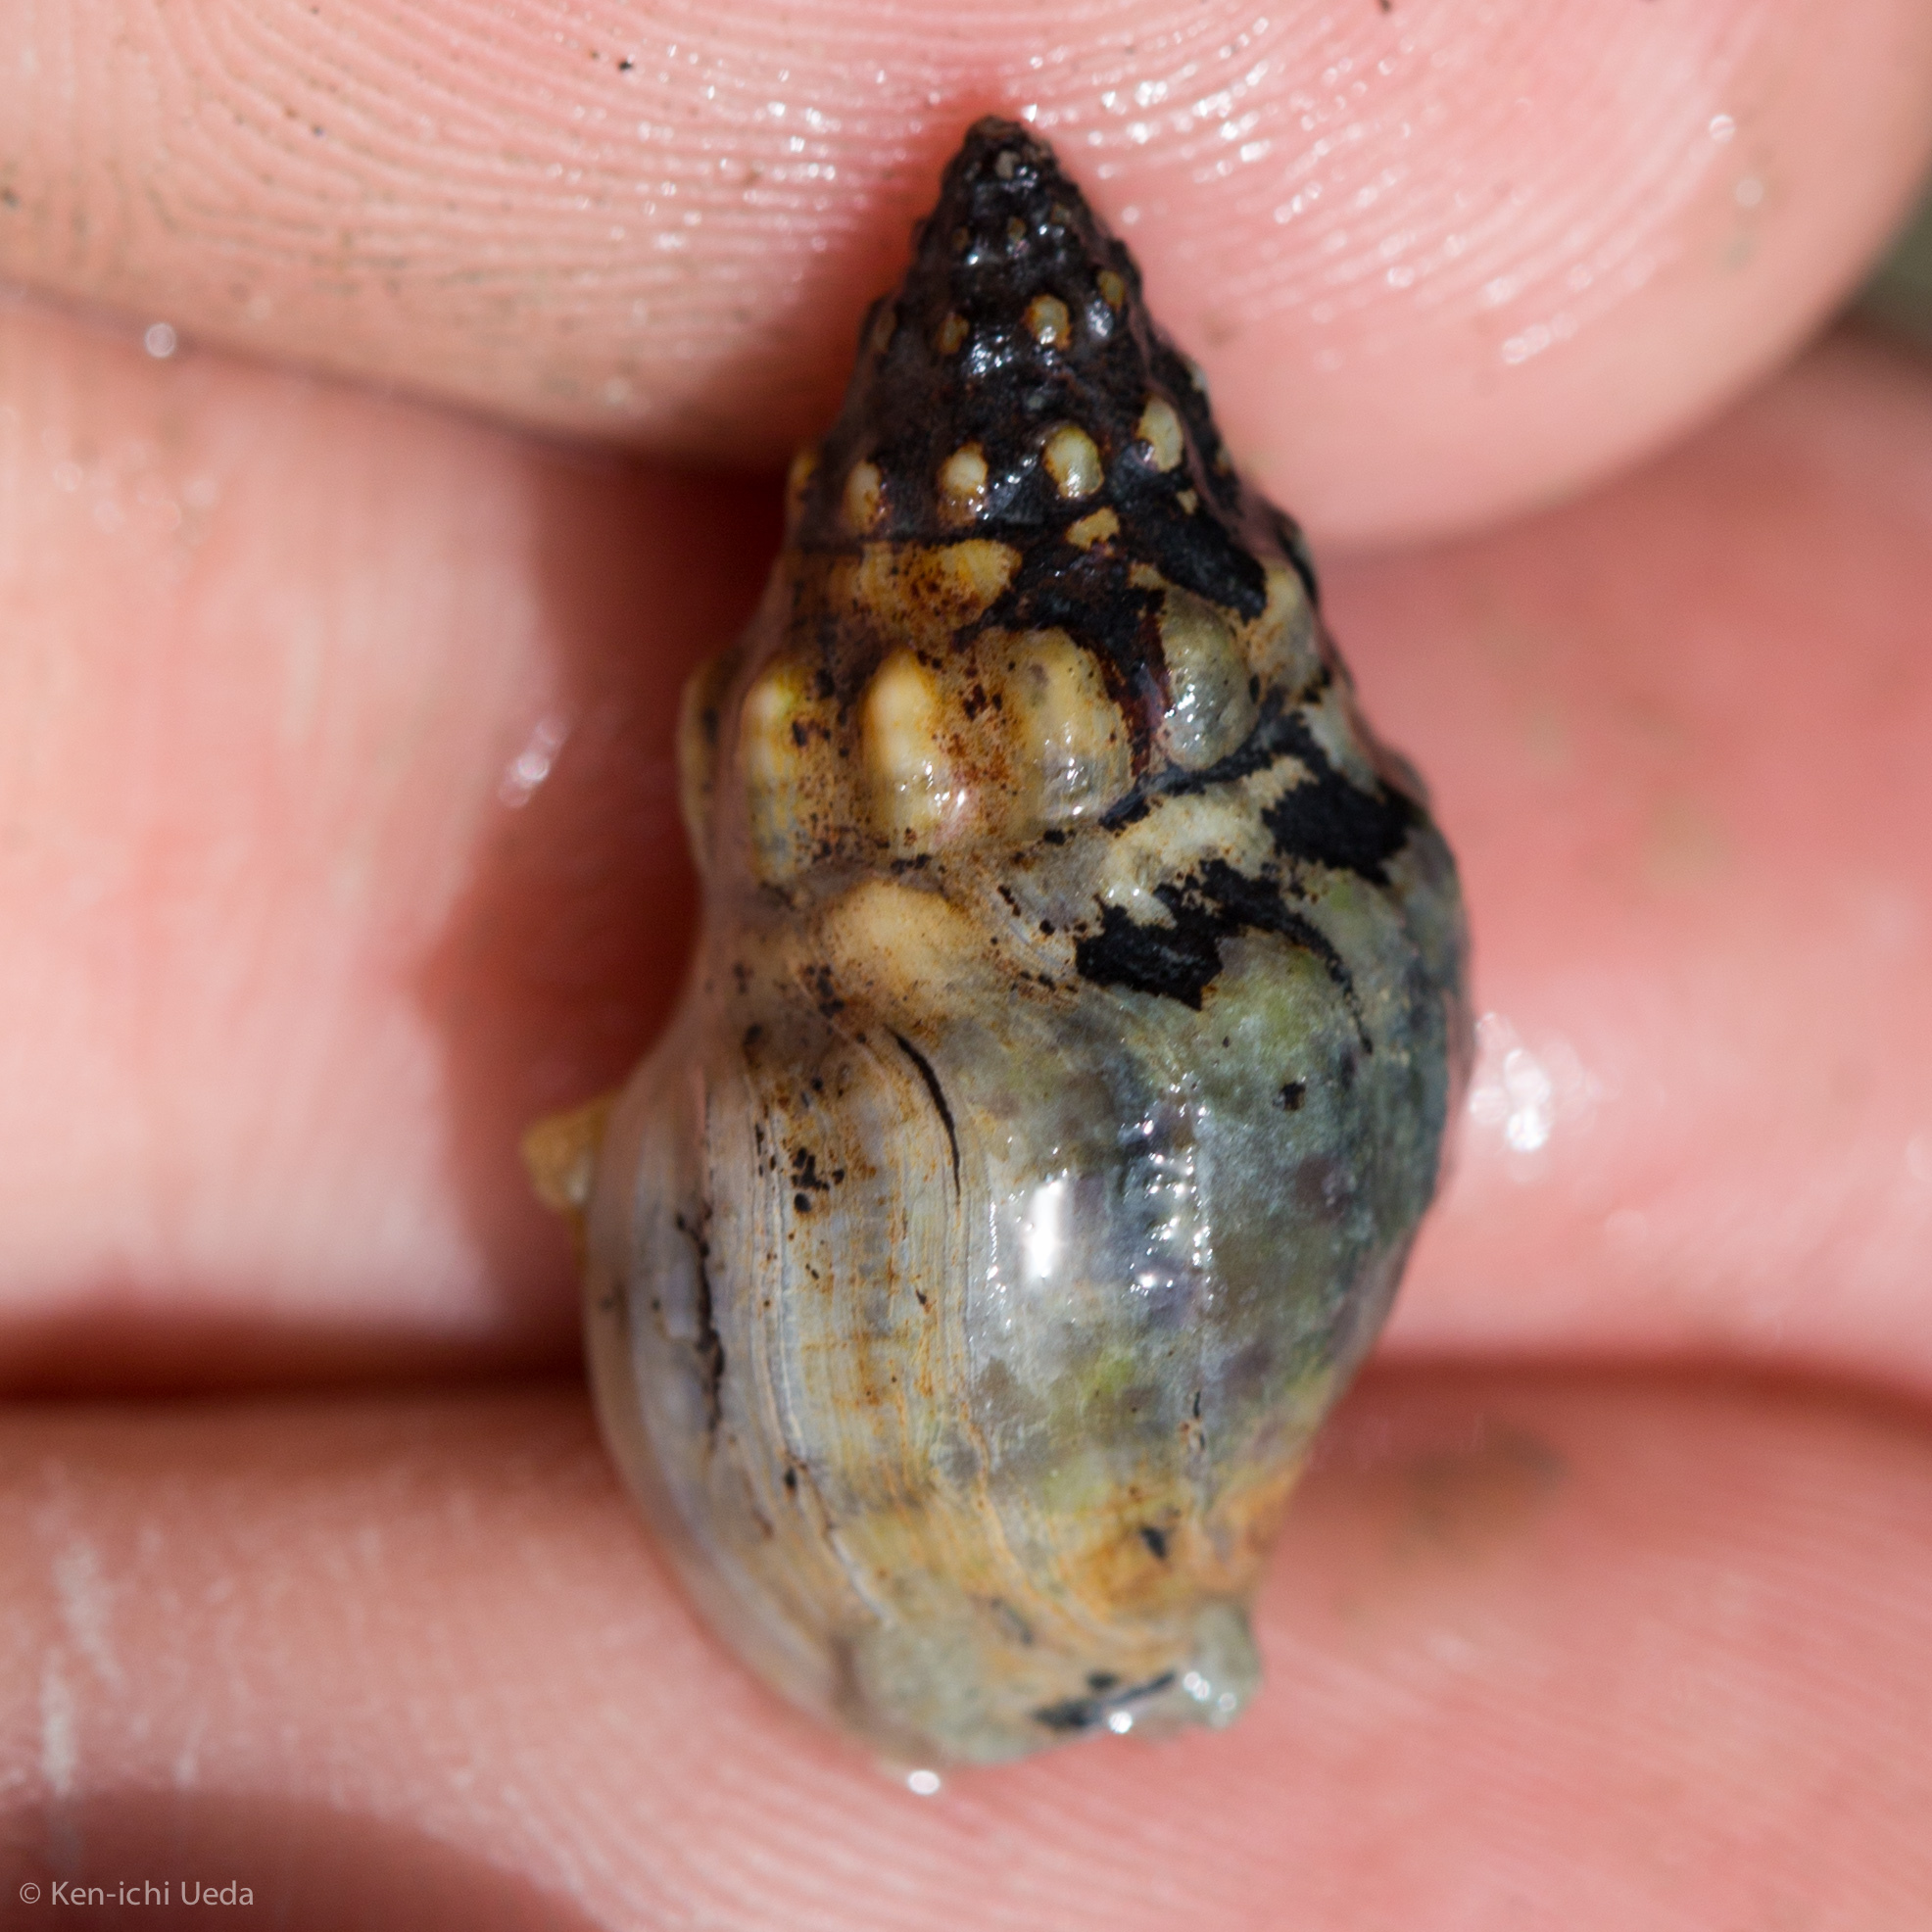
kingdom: Animalia
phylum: Mollusca
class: Gastropoda
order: Neogastropoda
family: Cominellidae
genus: Cominella
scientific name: Cominella glandiformis
